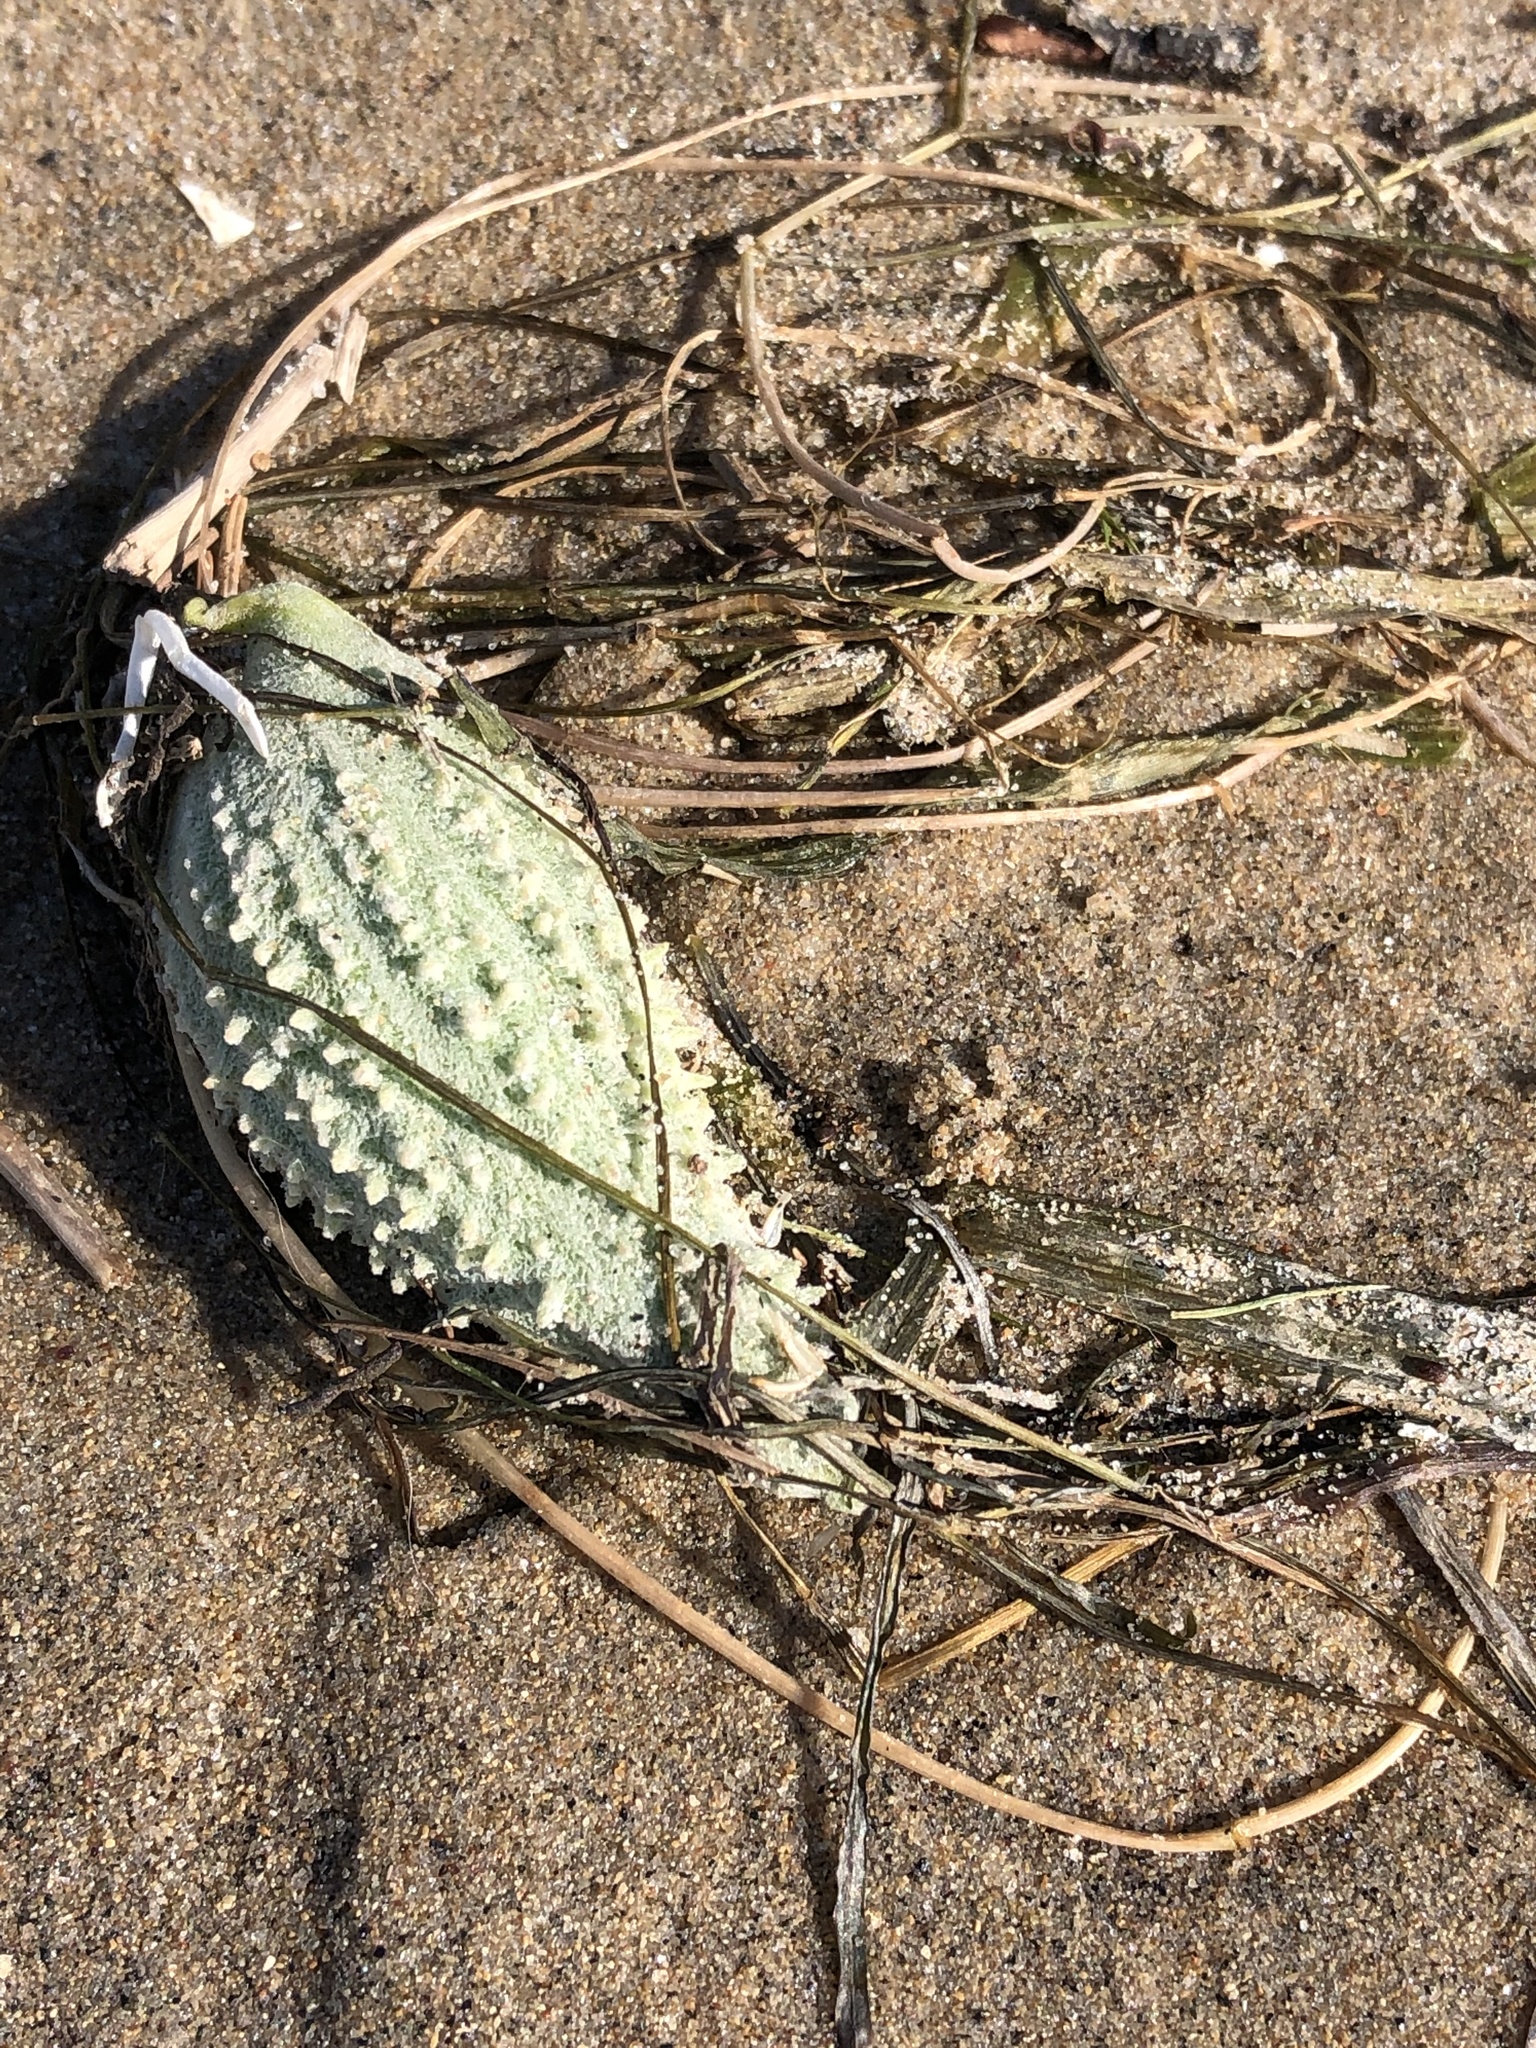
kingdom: Plantae
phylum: Tracheophyta
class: Magnoliopsida
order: Gentianales
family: Apocynaceae
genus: Asclepias
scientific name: Asclepias syriaca
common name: Common milkweed
